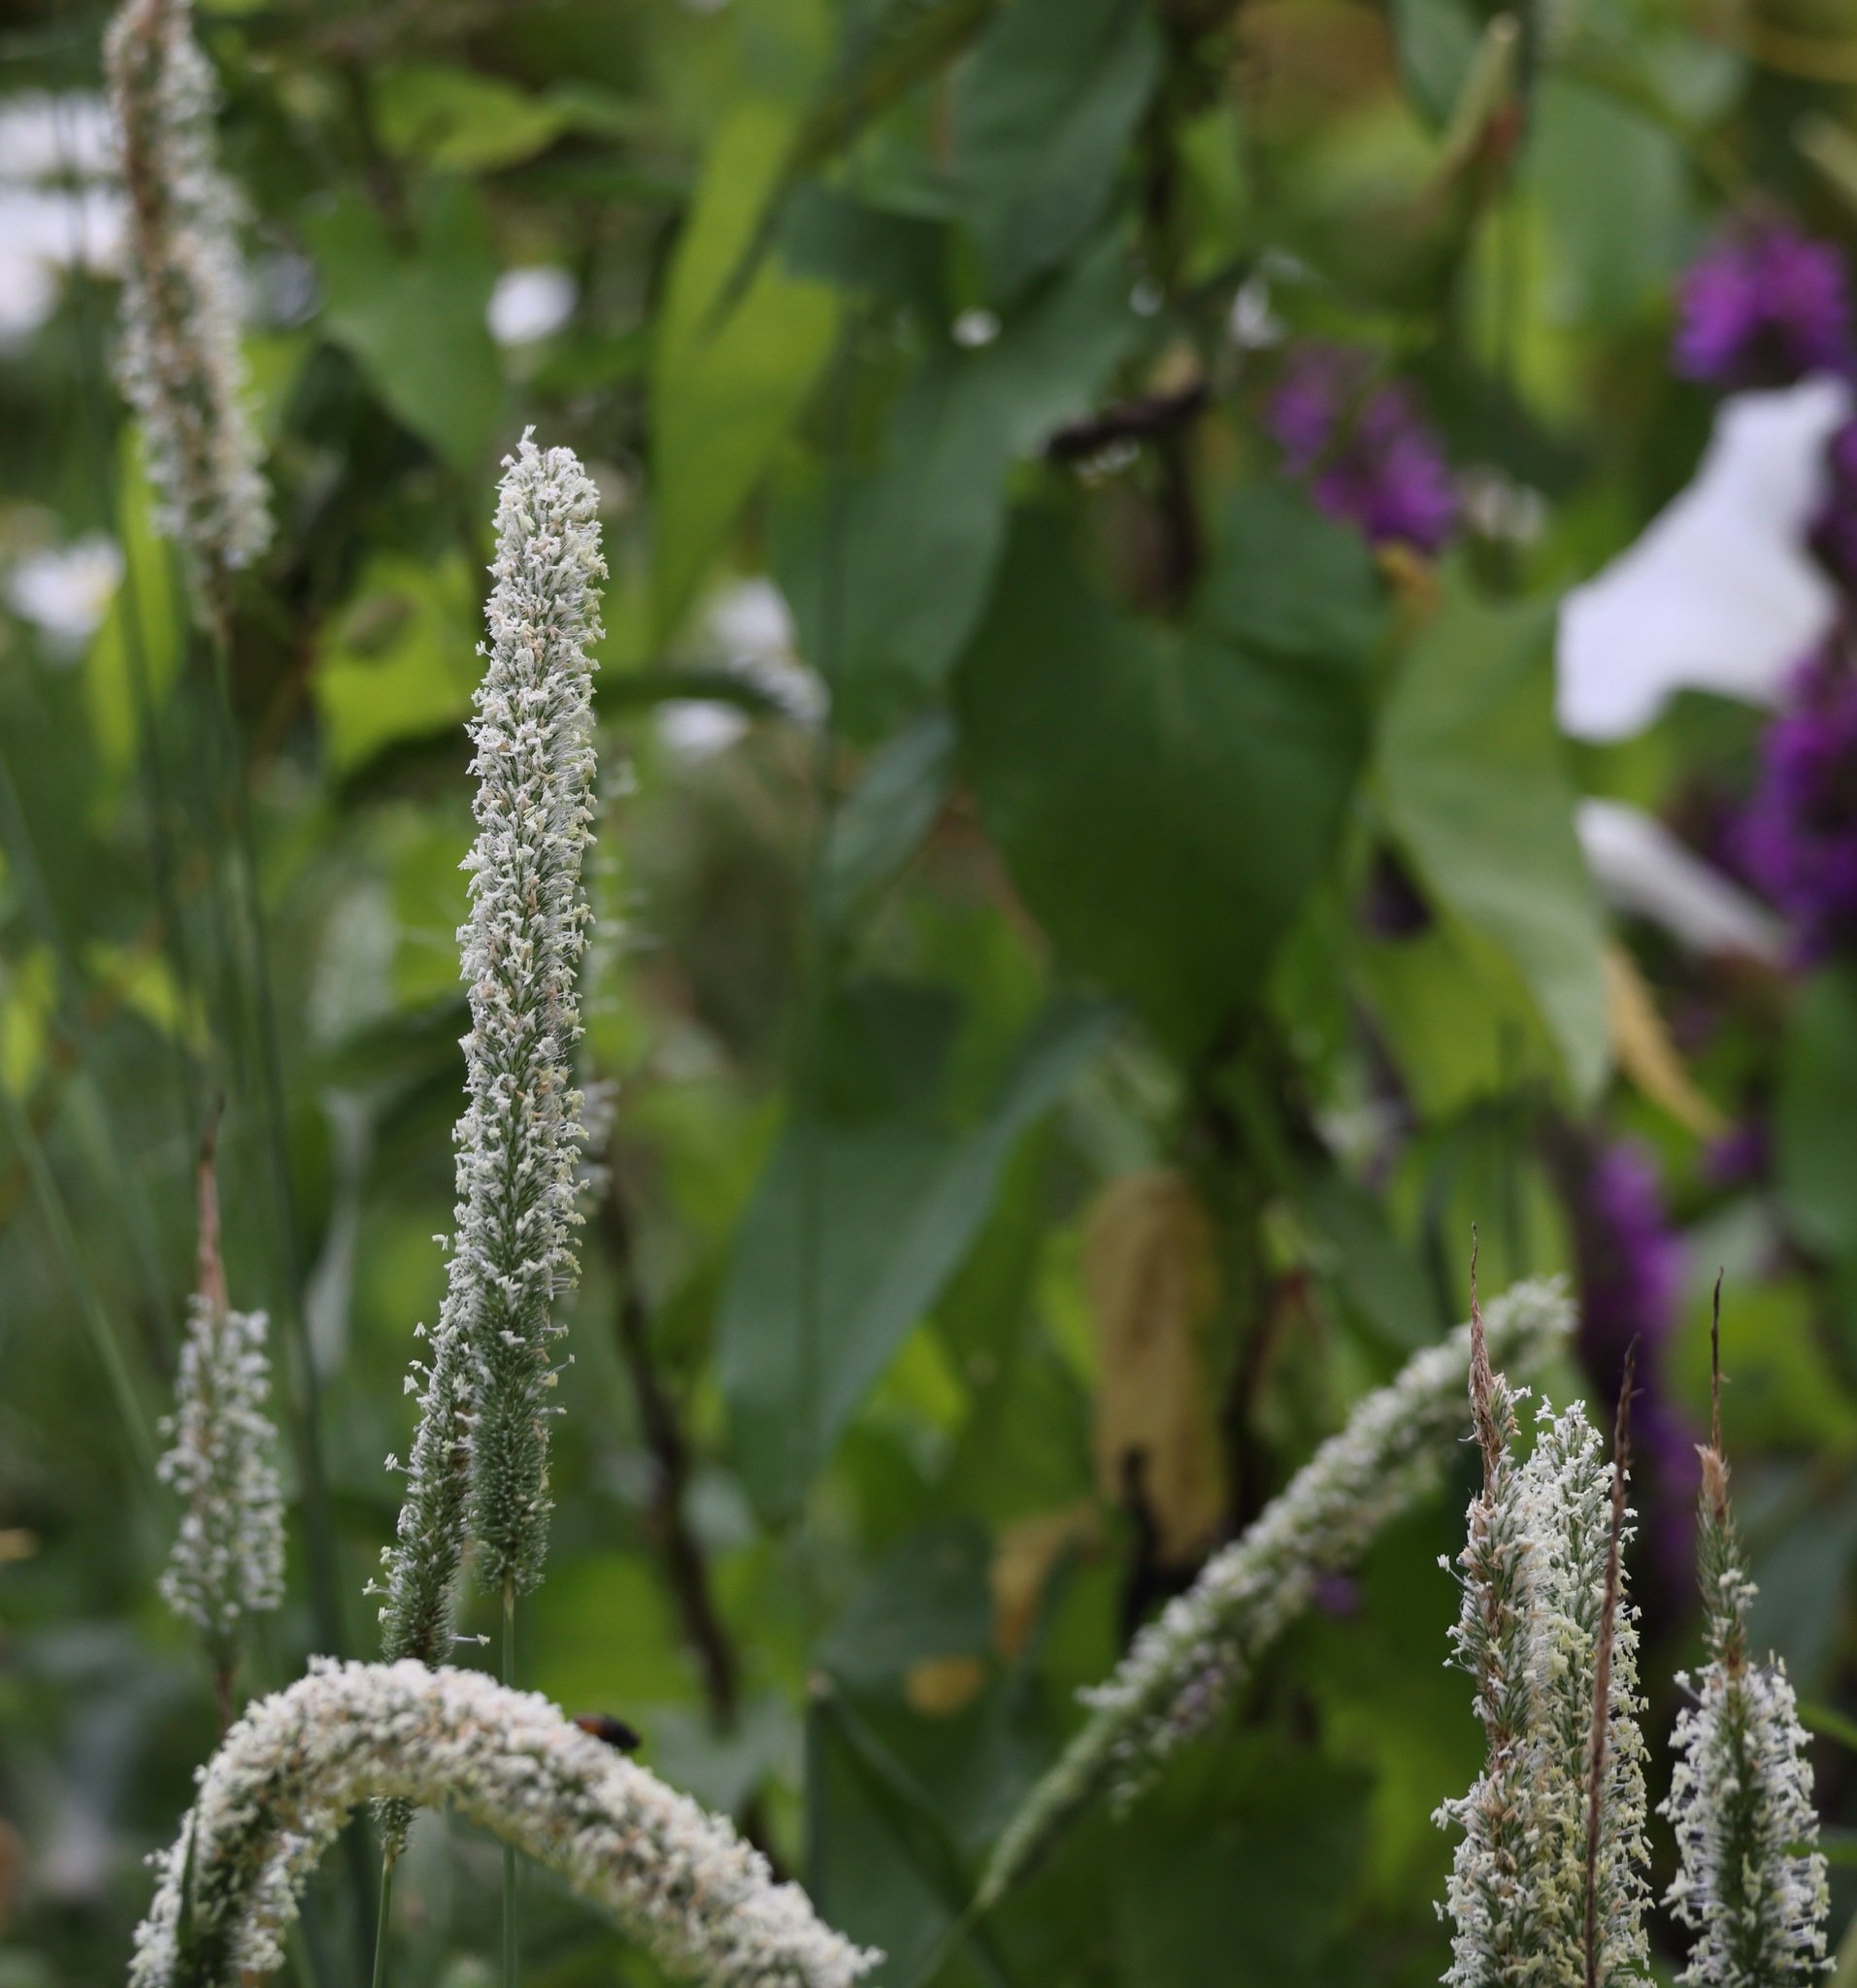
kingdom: Plantae
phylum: Tracheophyta
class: Liliopsida
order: Poales
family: Poaceae
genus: Phleum
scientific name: Phleum pratense
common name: Timothy grass
